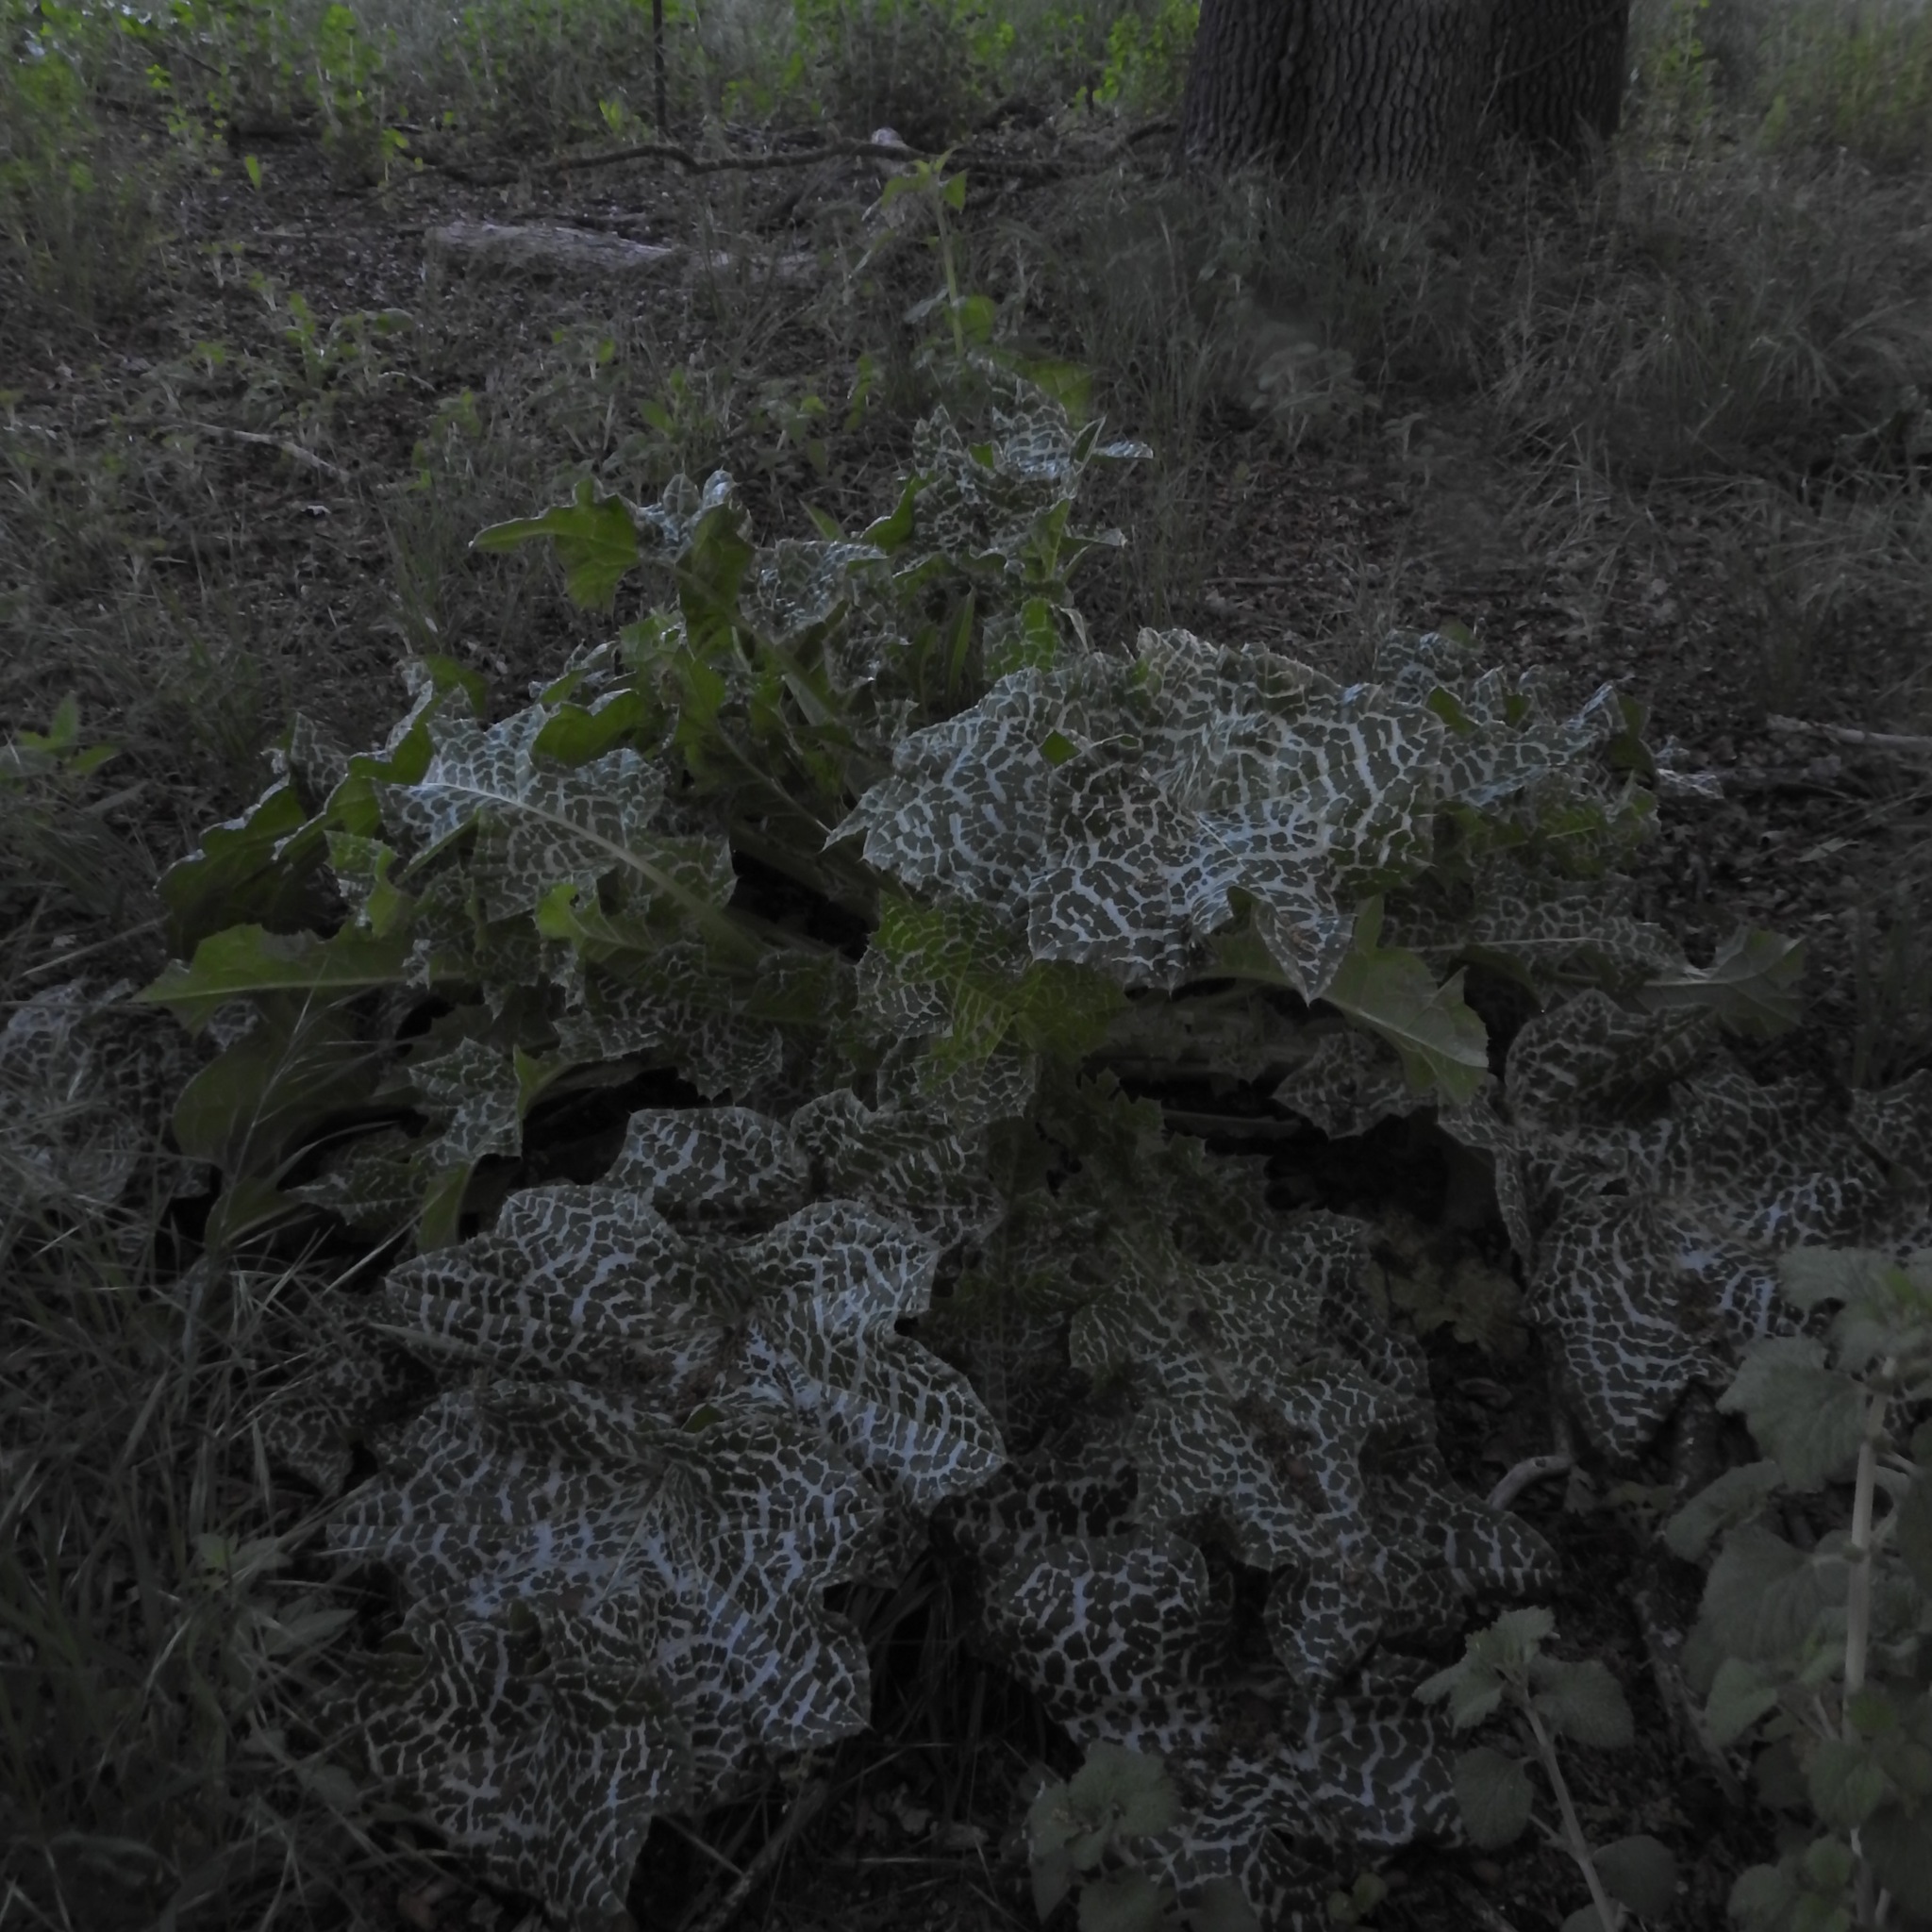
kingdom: Plantae
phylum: Tracheophyta
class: Magnoliopsida
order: Asterales
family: Asteraceae
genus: Silybum
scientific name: Silybum marianum
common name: Milk thistle
